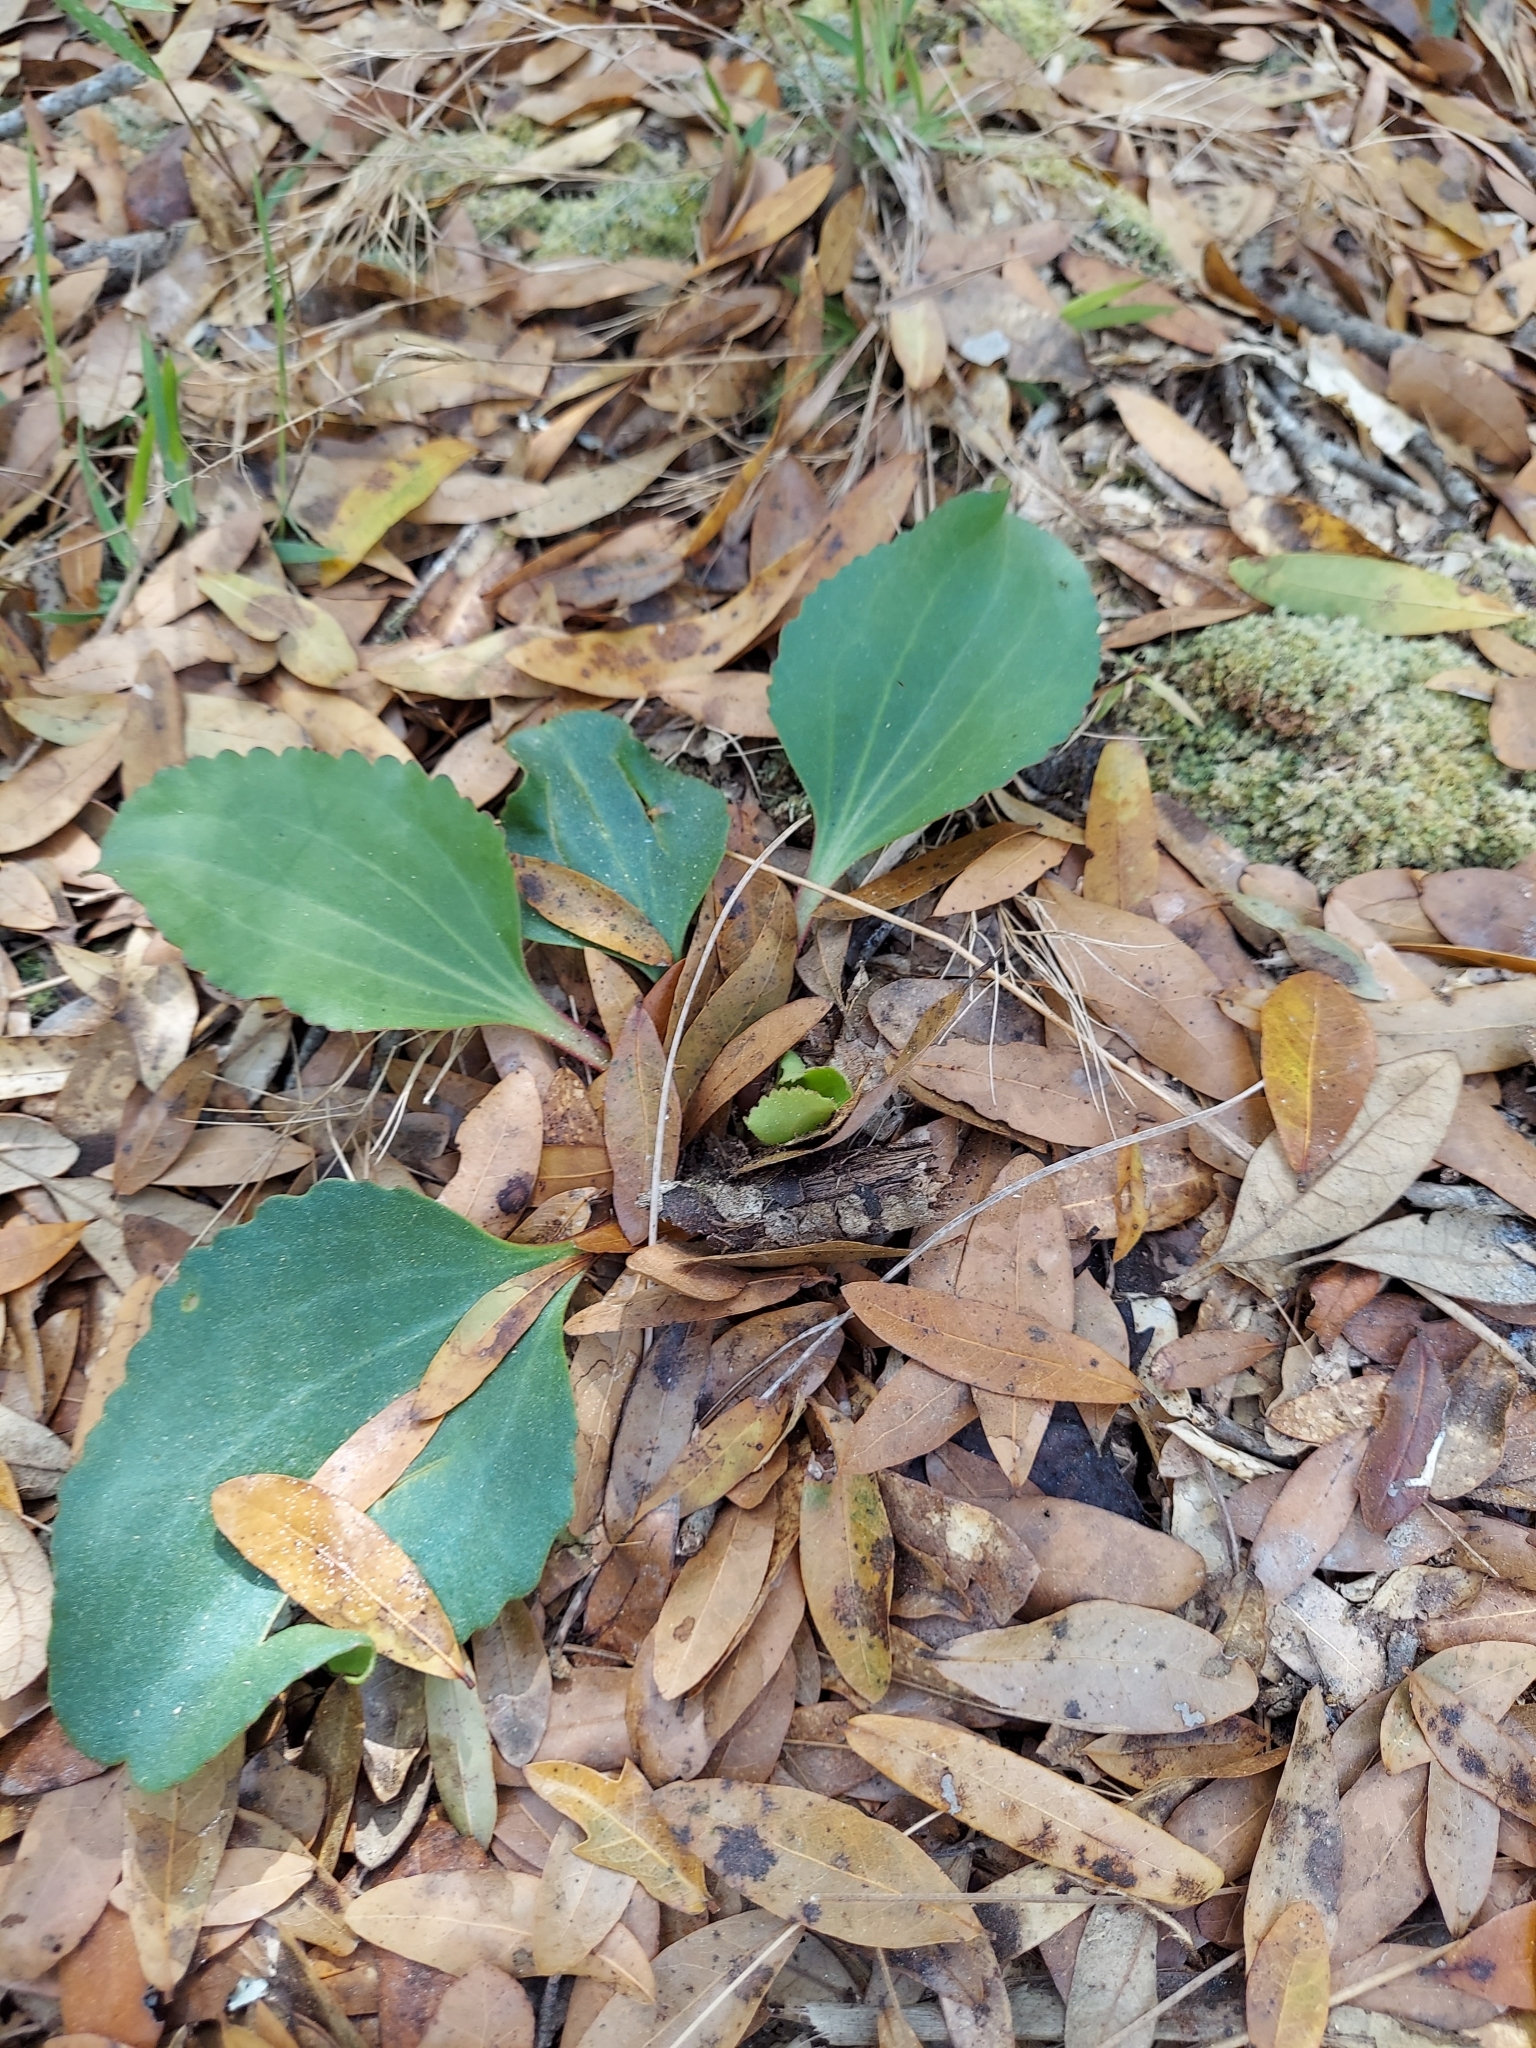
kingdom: Plantae
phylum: Tracheophyta
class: Magnoliopsida
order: Asterales
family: Asteraceae
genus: Arnoglossum
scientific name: Arnoglossum floridanum
